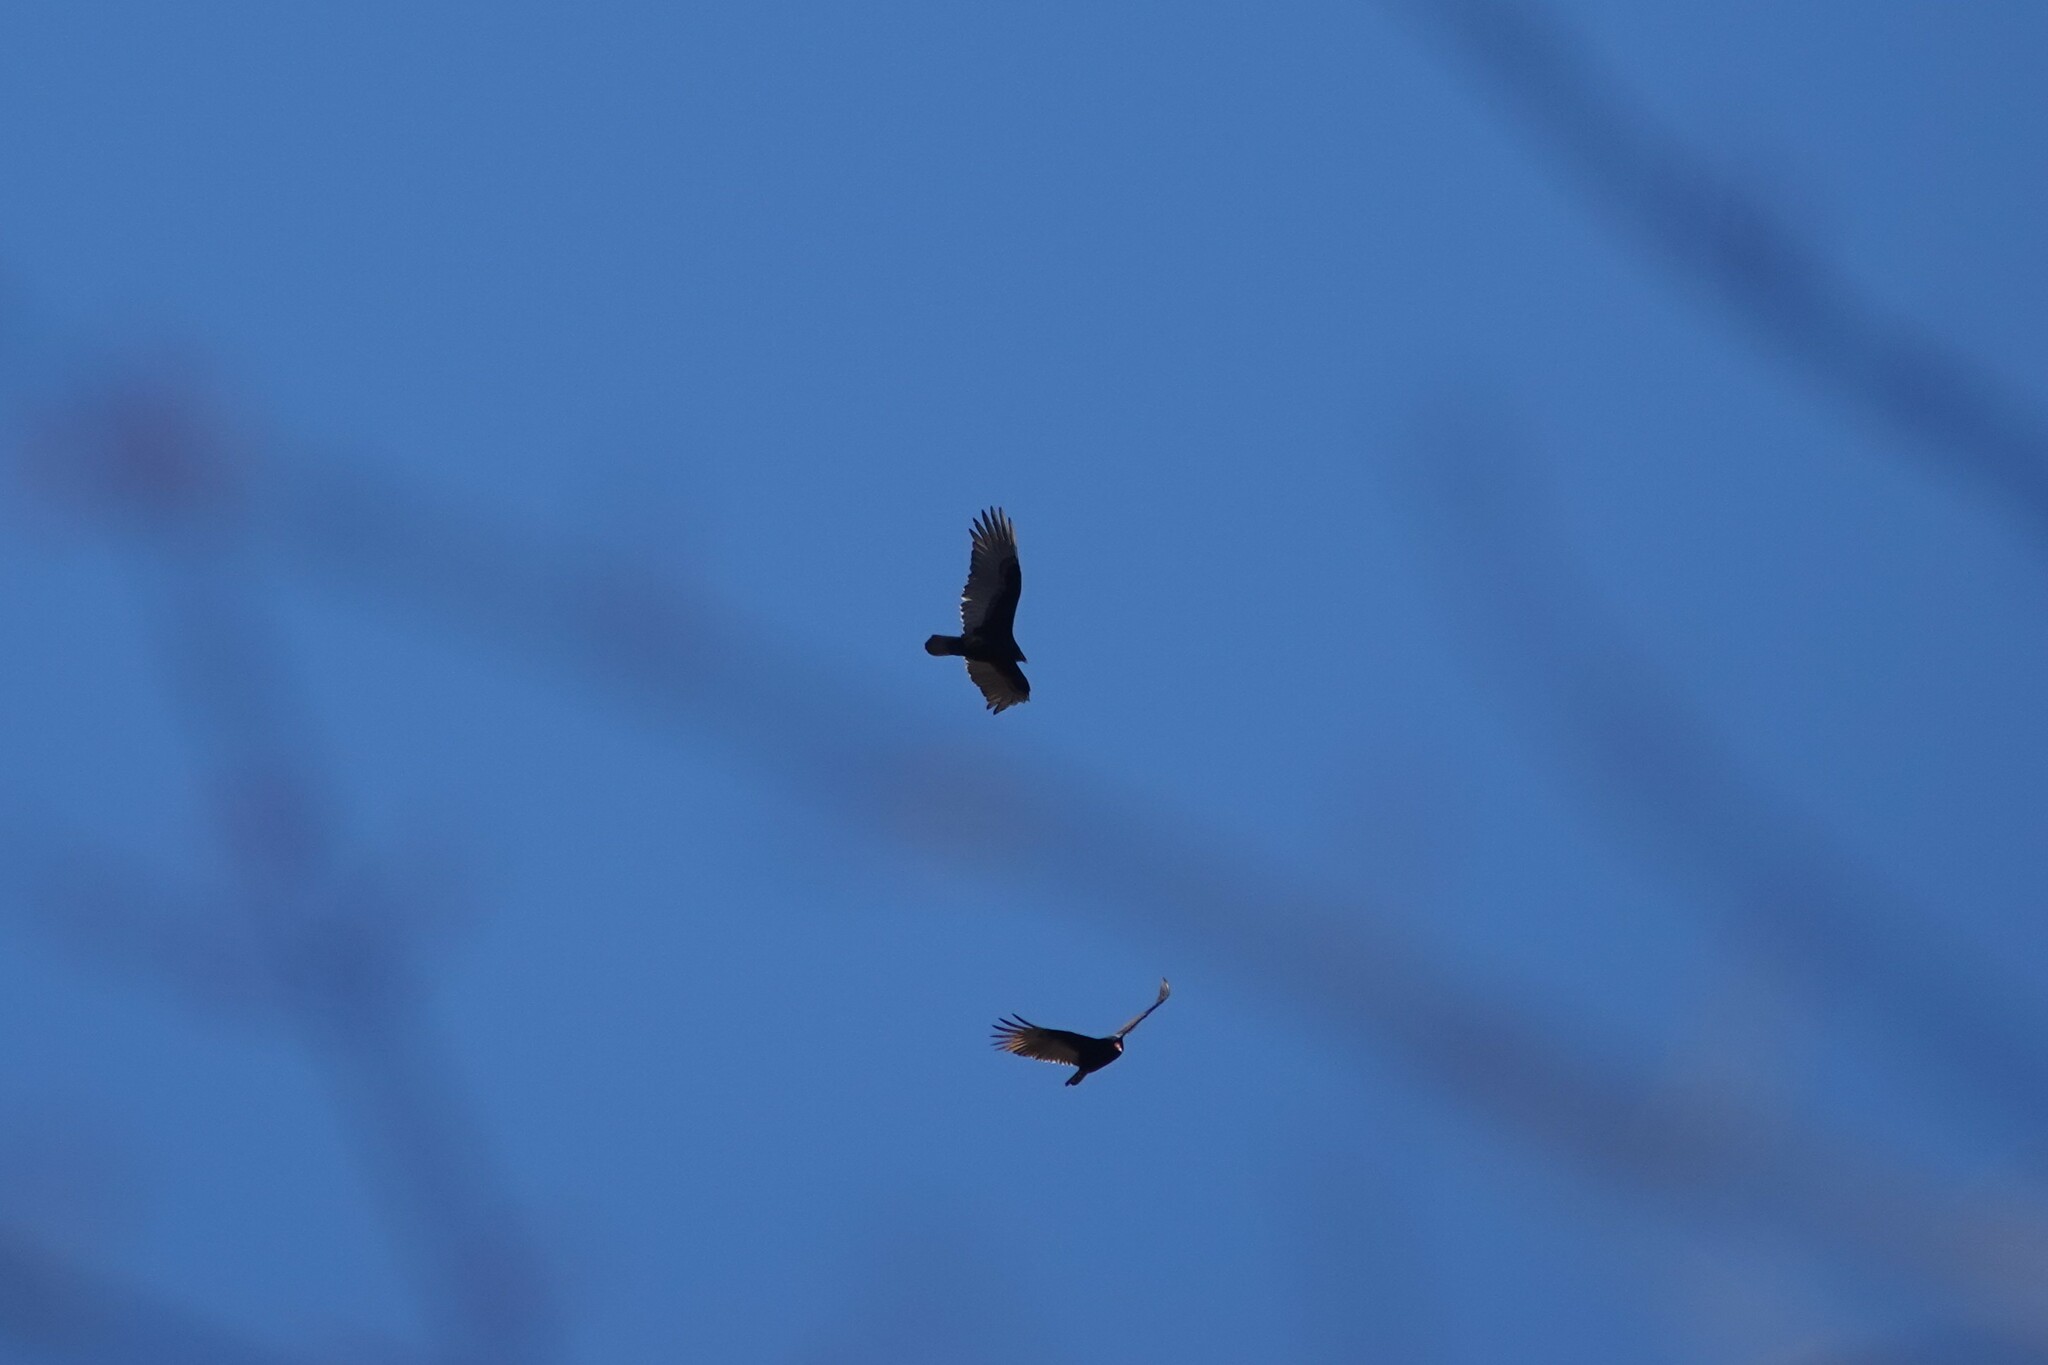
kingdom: Animalia
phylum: Chordata
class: Aves
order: Accipitriformes
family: Cathartidae
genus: Cathartes
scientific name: Cathartes aura
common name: Turkey vulture
